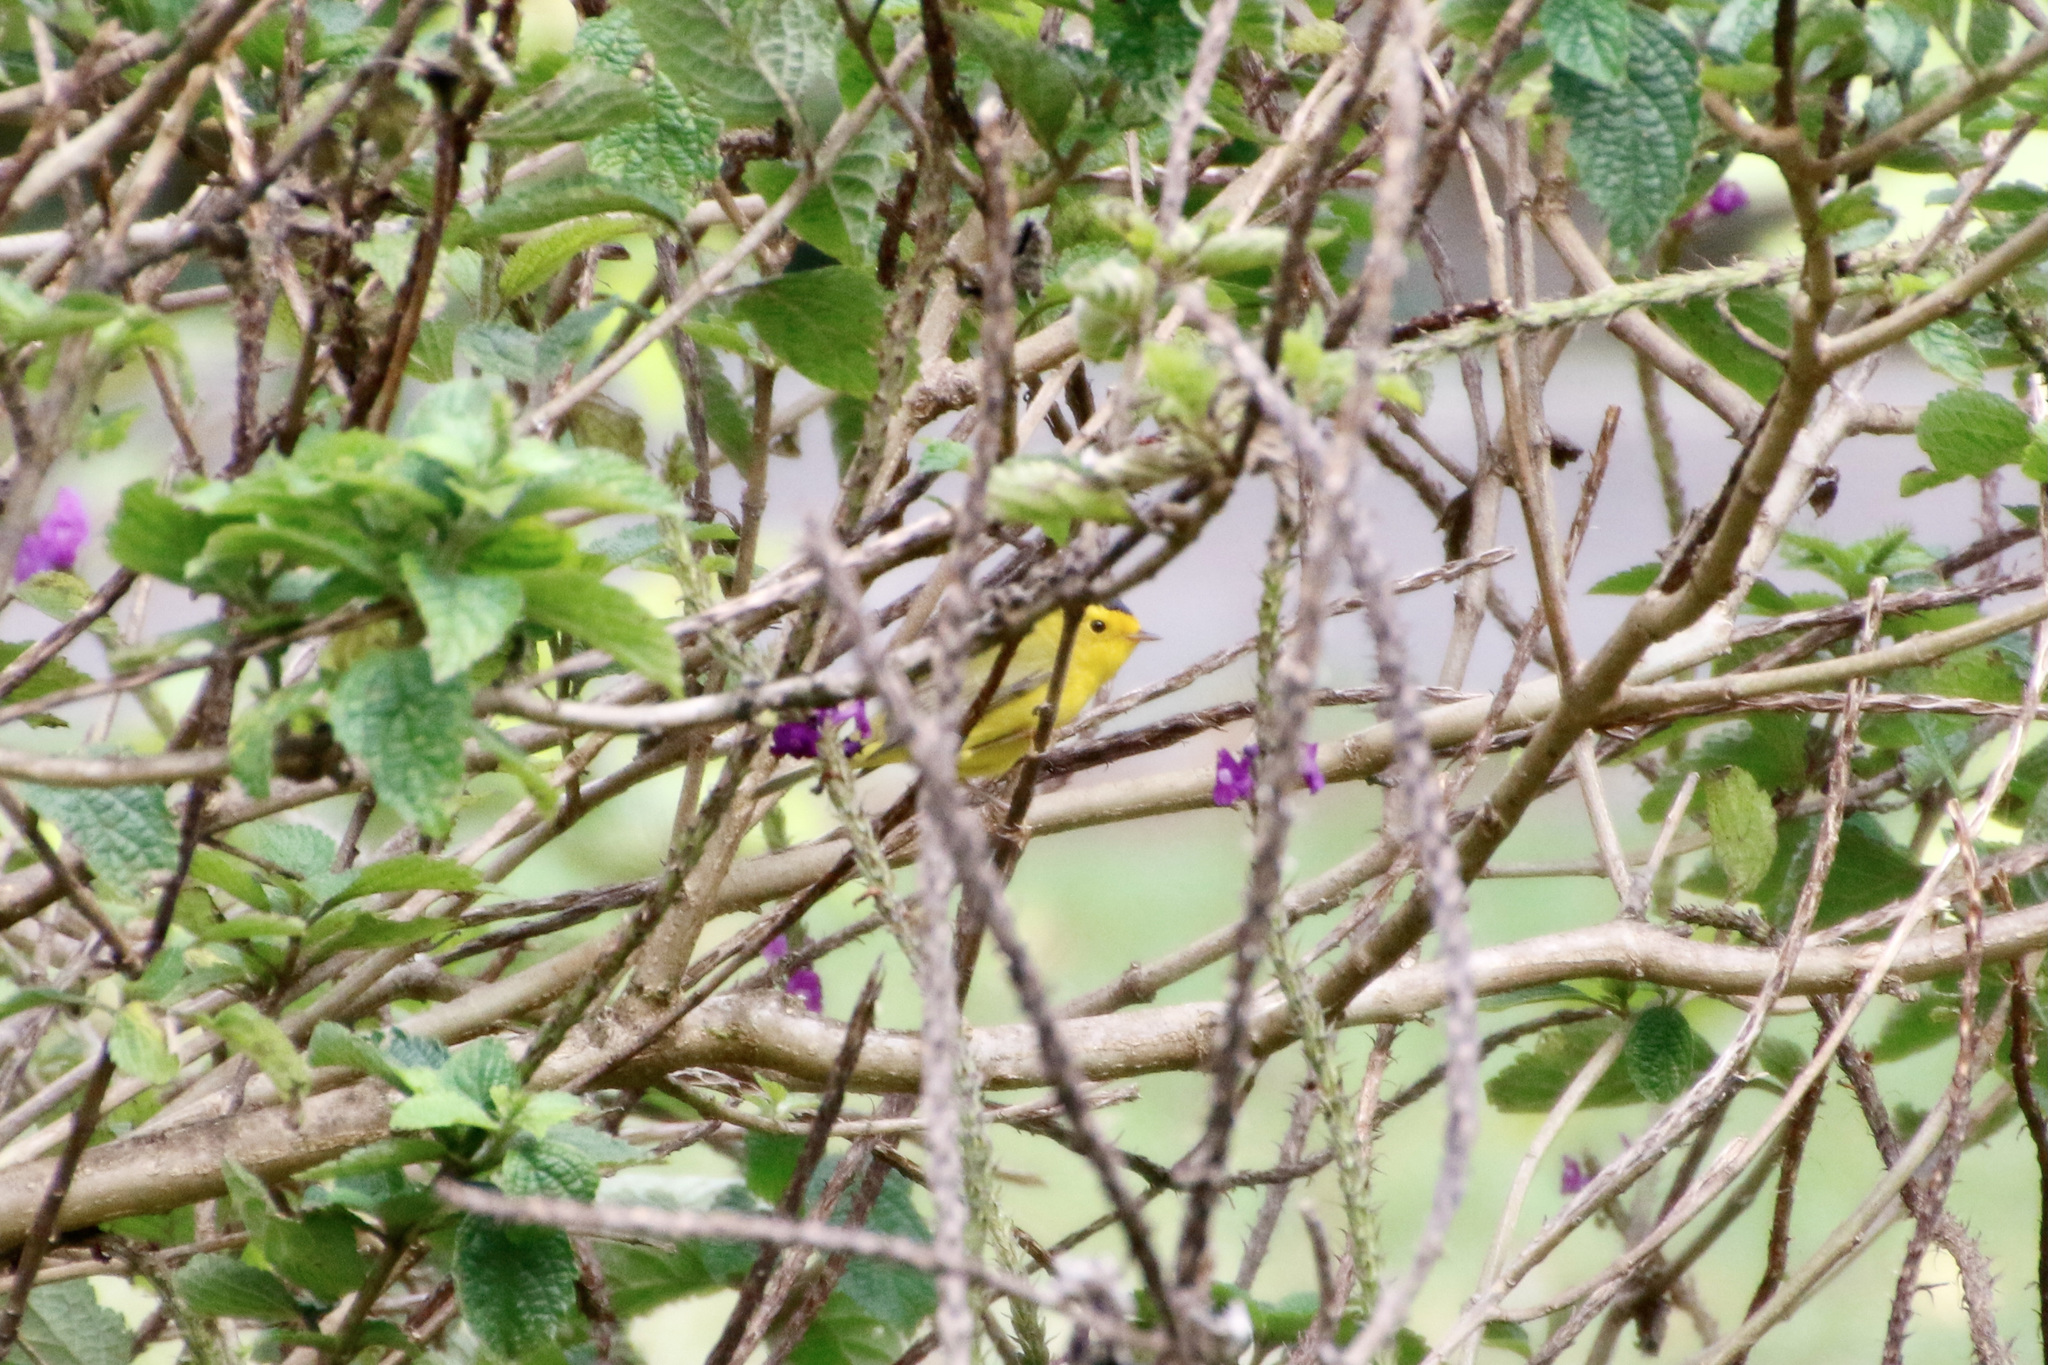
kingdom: Animalia
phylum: Chordata
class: Aves
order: Passeriformes
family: Parulidae
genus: Cardellina
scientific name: Cardellina pusilla
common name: Wilson's warbler
